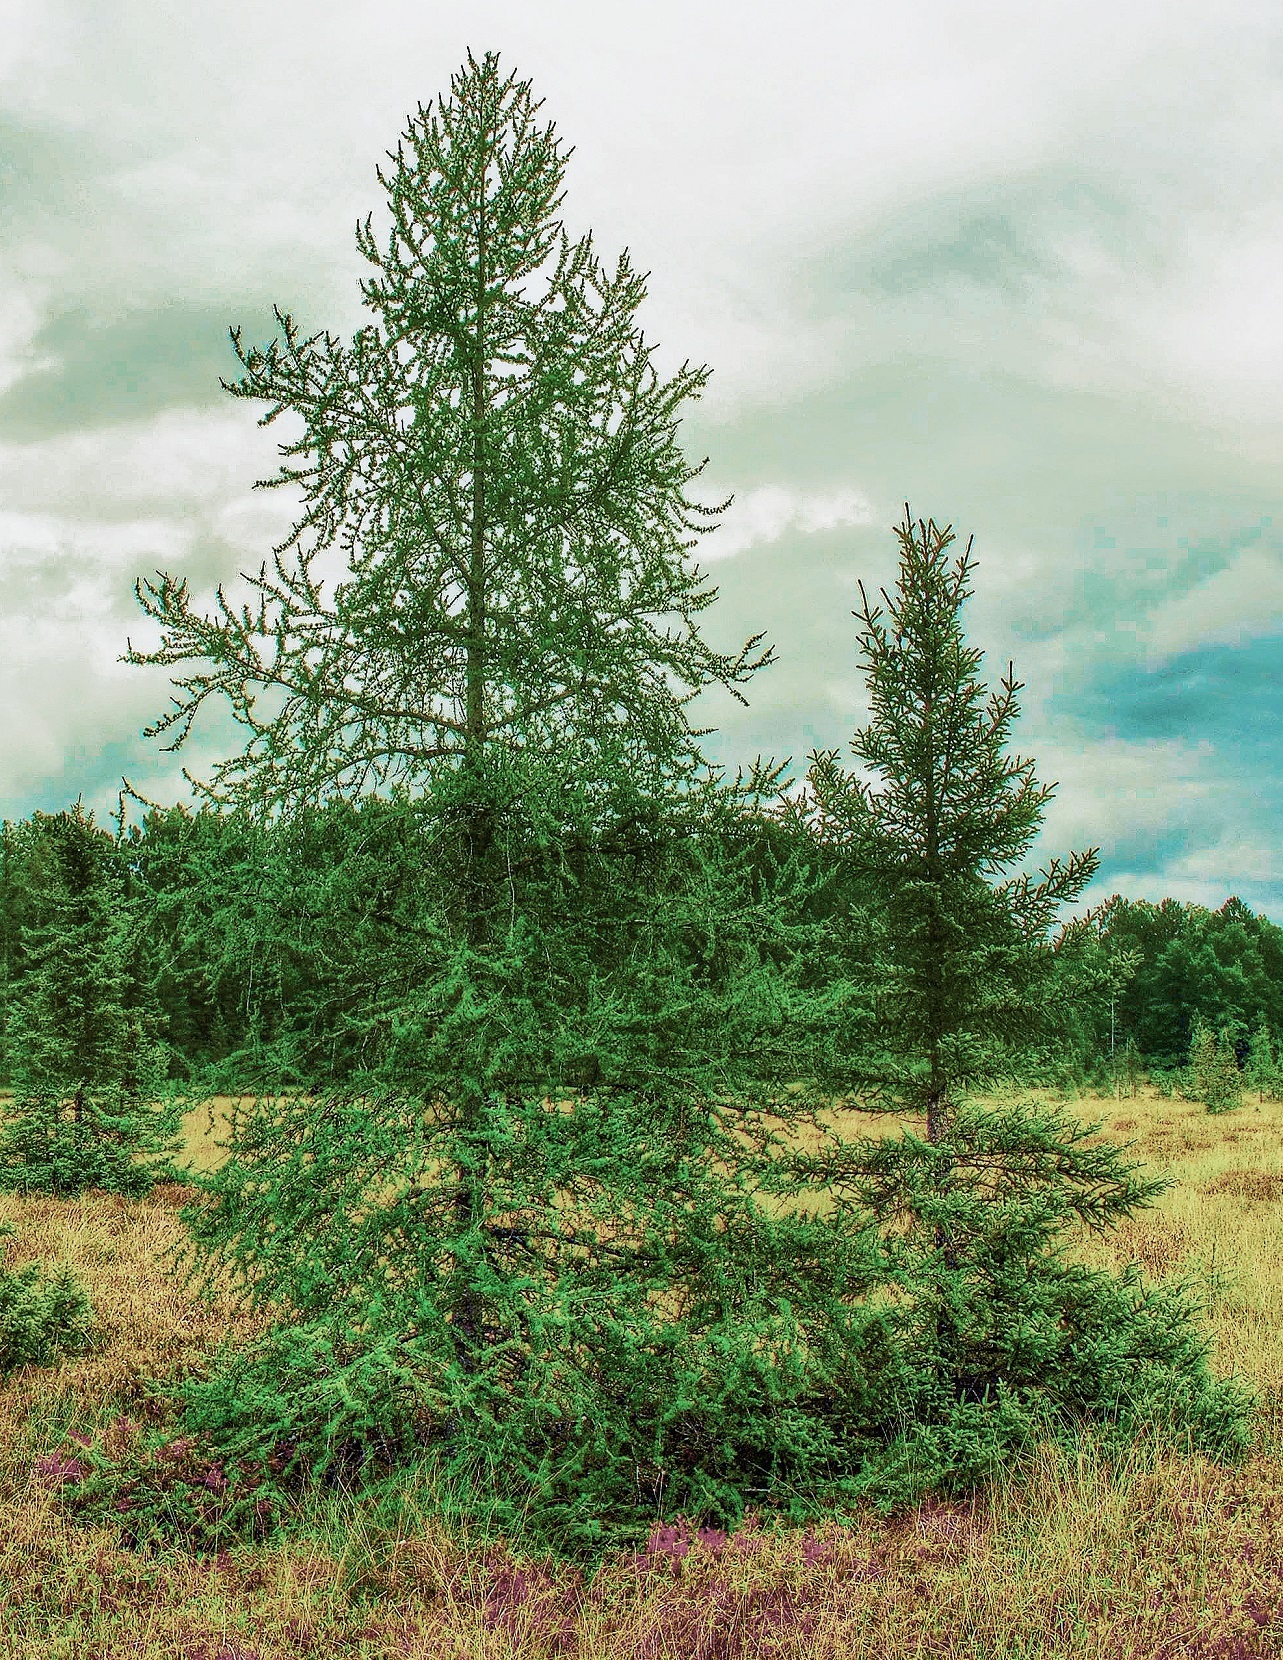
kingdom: Plantae
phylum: Tracheophyta
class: Pinopsida
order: Pinales
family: Pinaceae
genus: Larix
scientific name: Larix laricina
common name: American larch
